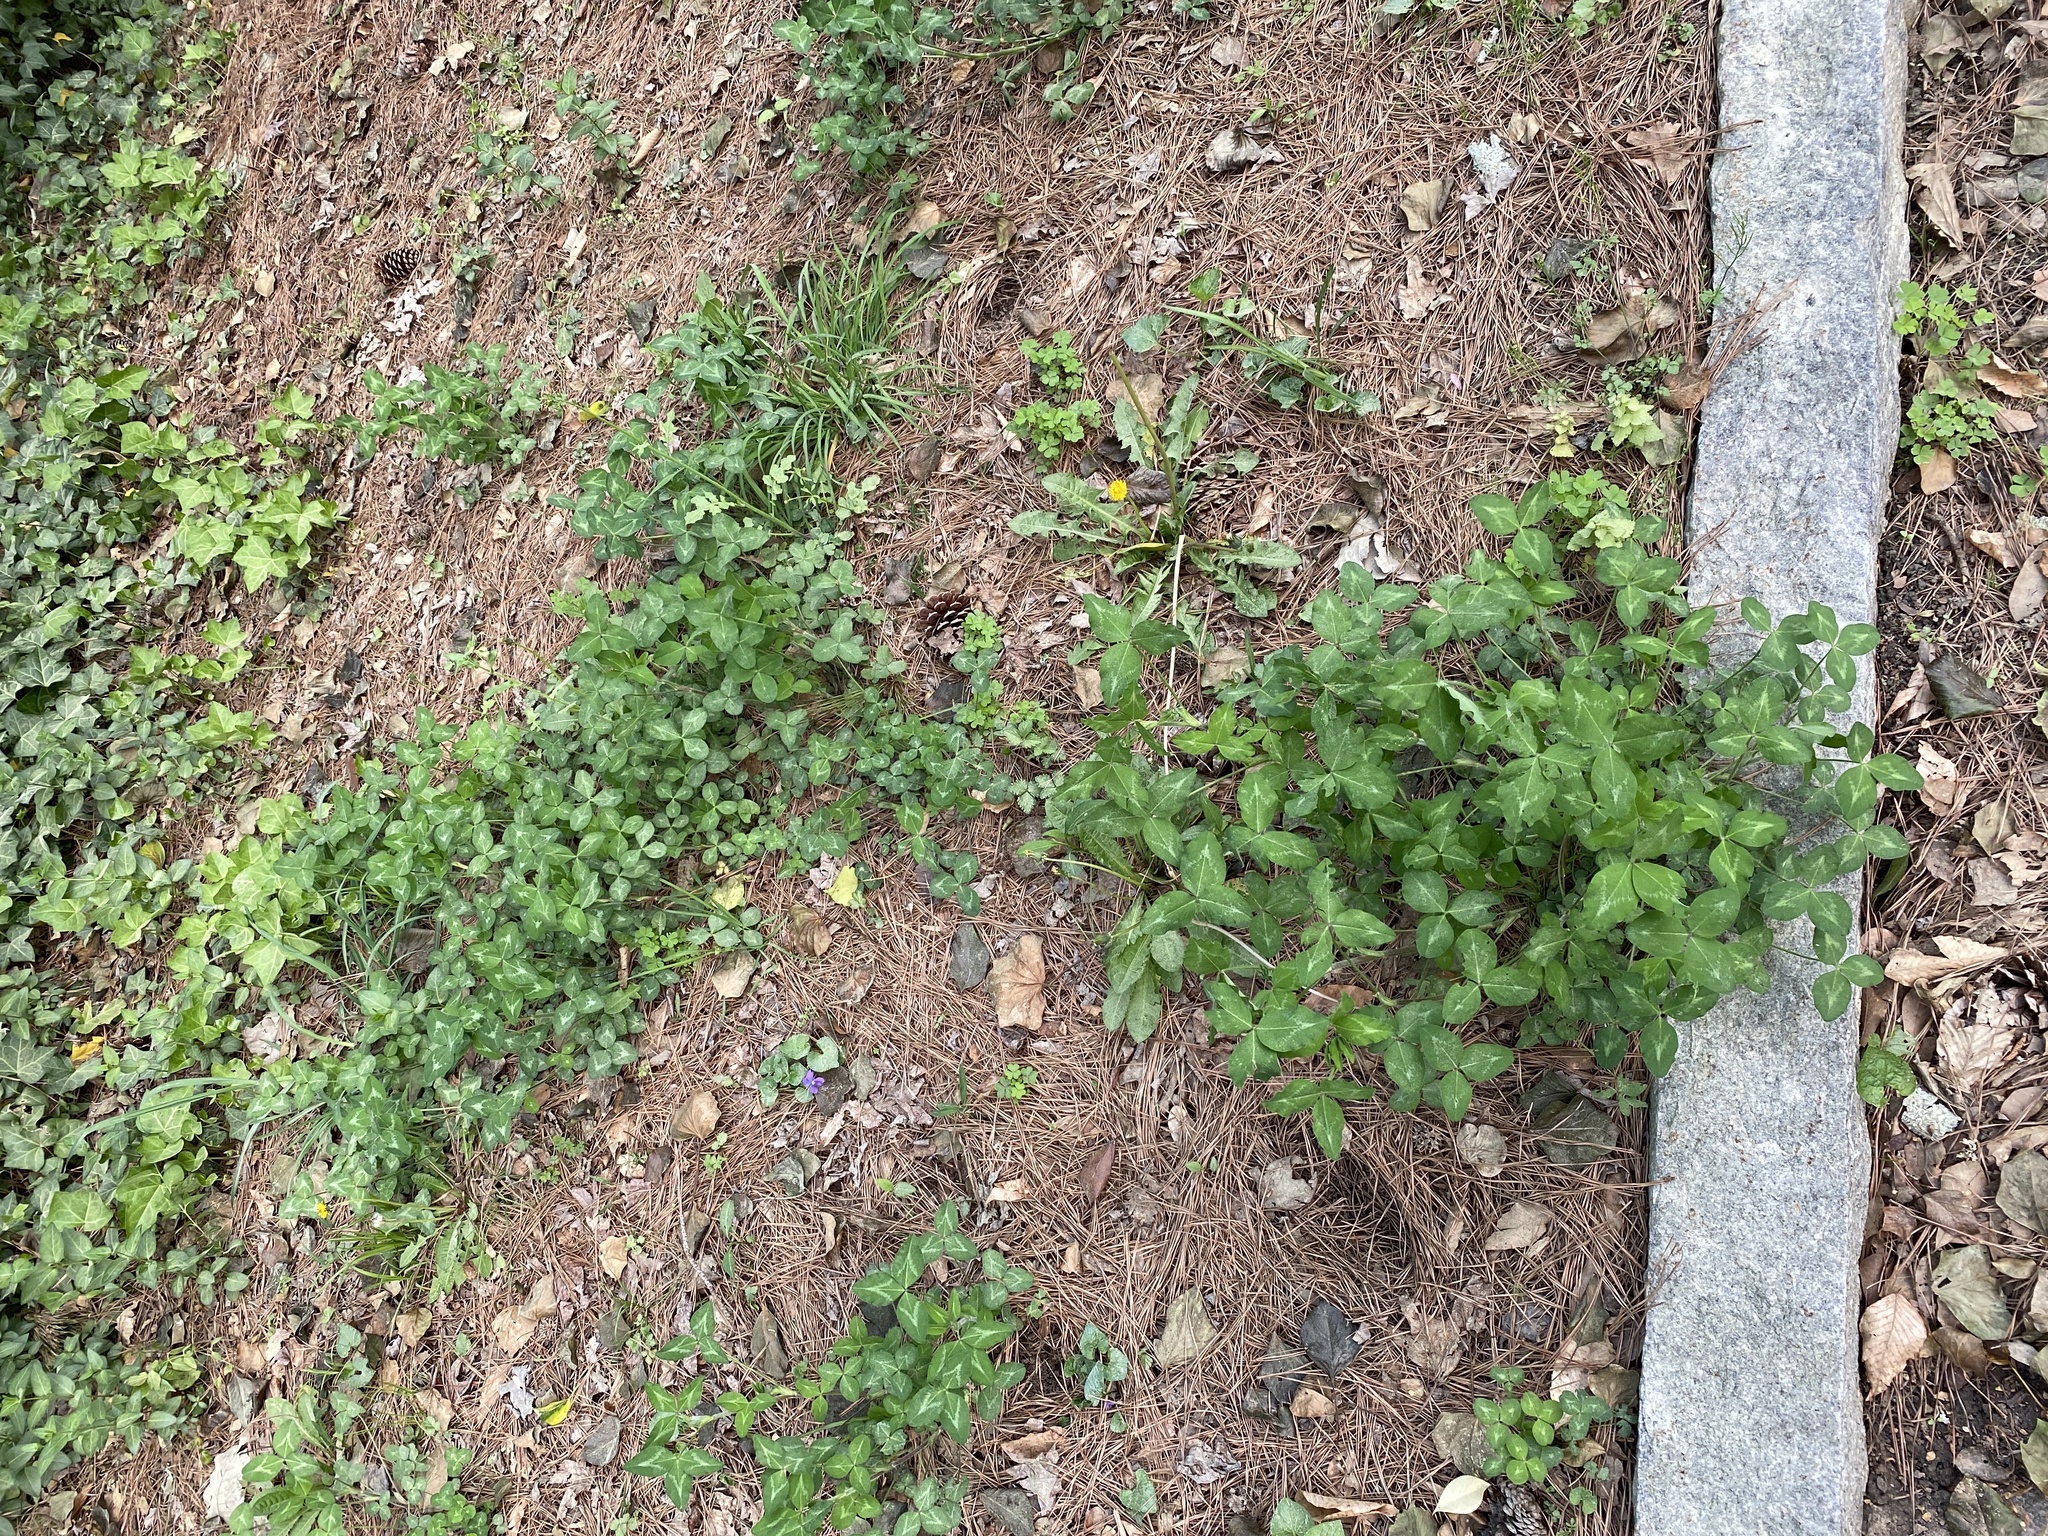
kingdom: Plantae
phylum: Tracheophyta
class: Magnoliopsida
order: Fabales
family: Fabaceae
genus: Trifolium
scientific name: Trifolium pratense
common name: Red clover
